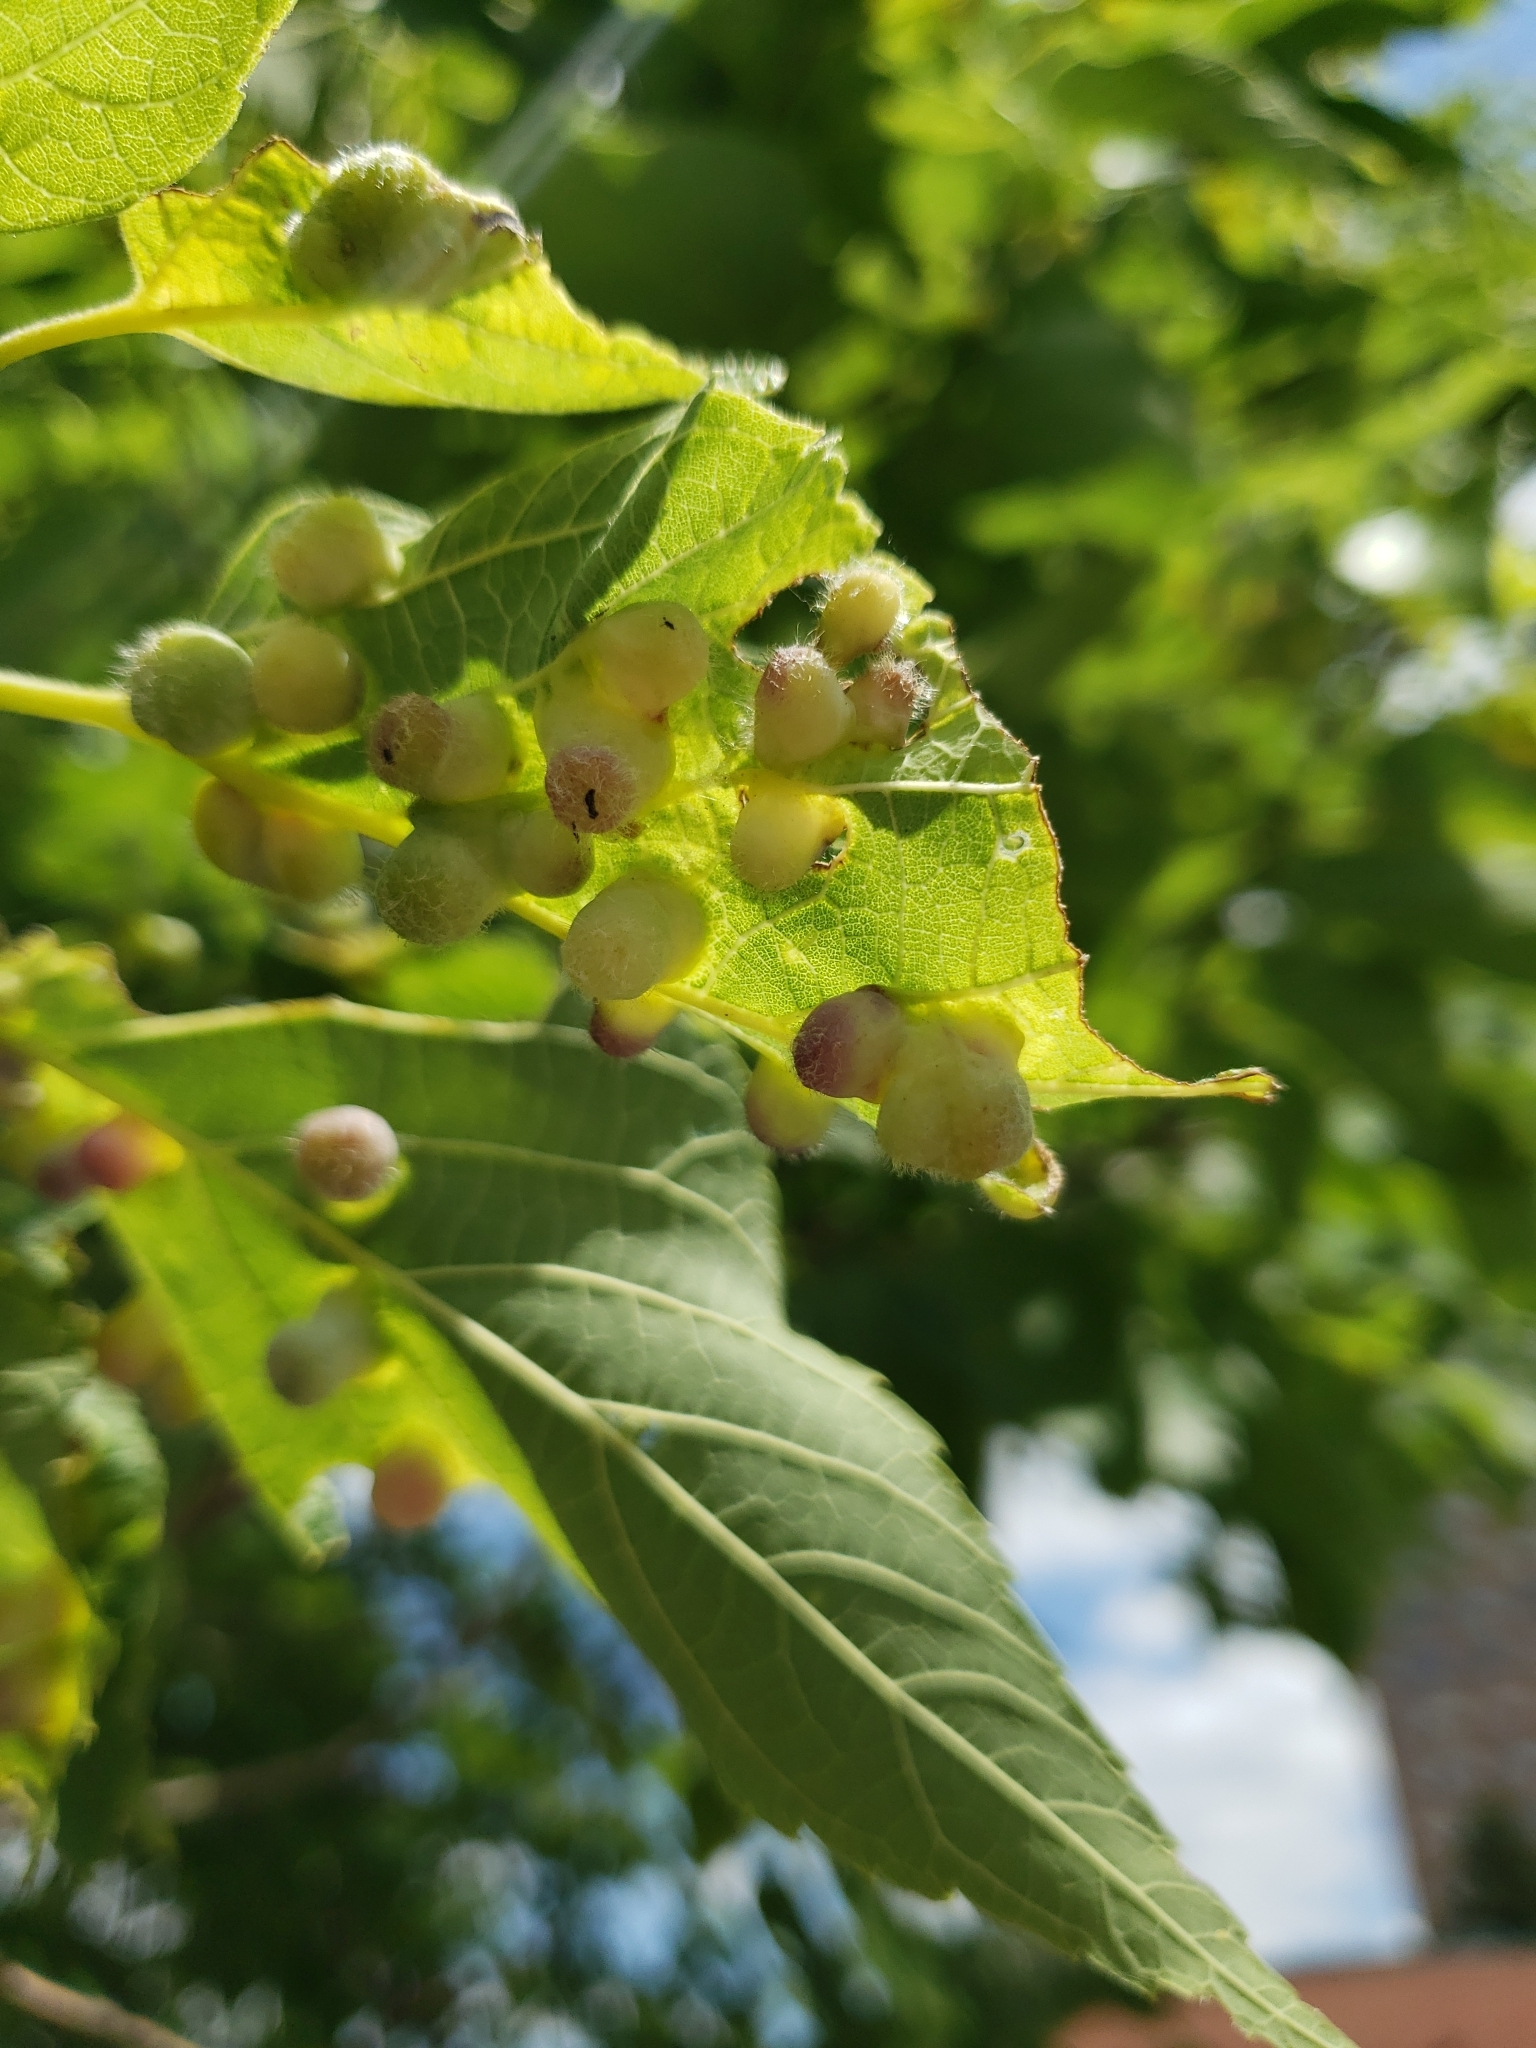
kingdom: Animalia
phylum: Arthropoda
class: Insecta
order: Hemiptera
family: Aphalaridae
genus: Pachypsylla
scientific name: Pachypsylla celtidismamma
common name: Hackberry nipplegall psyllid
